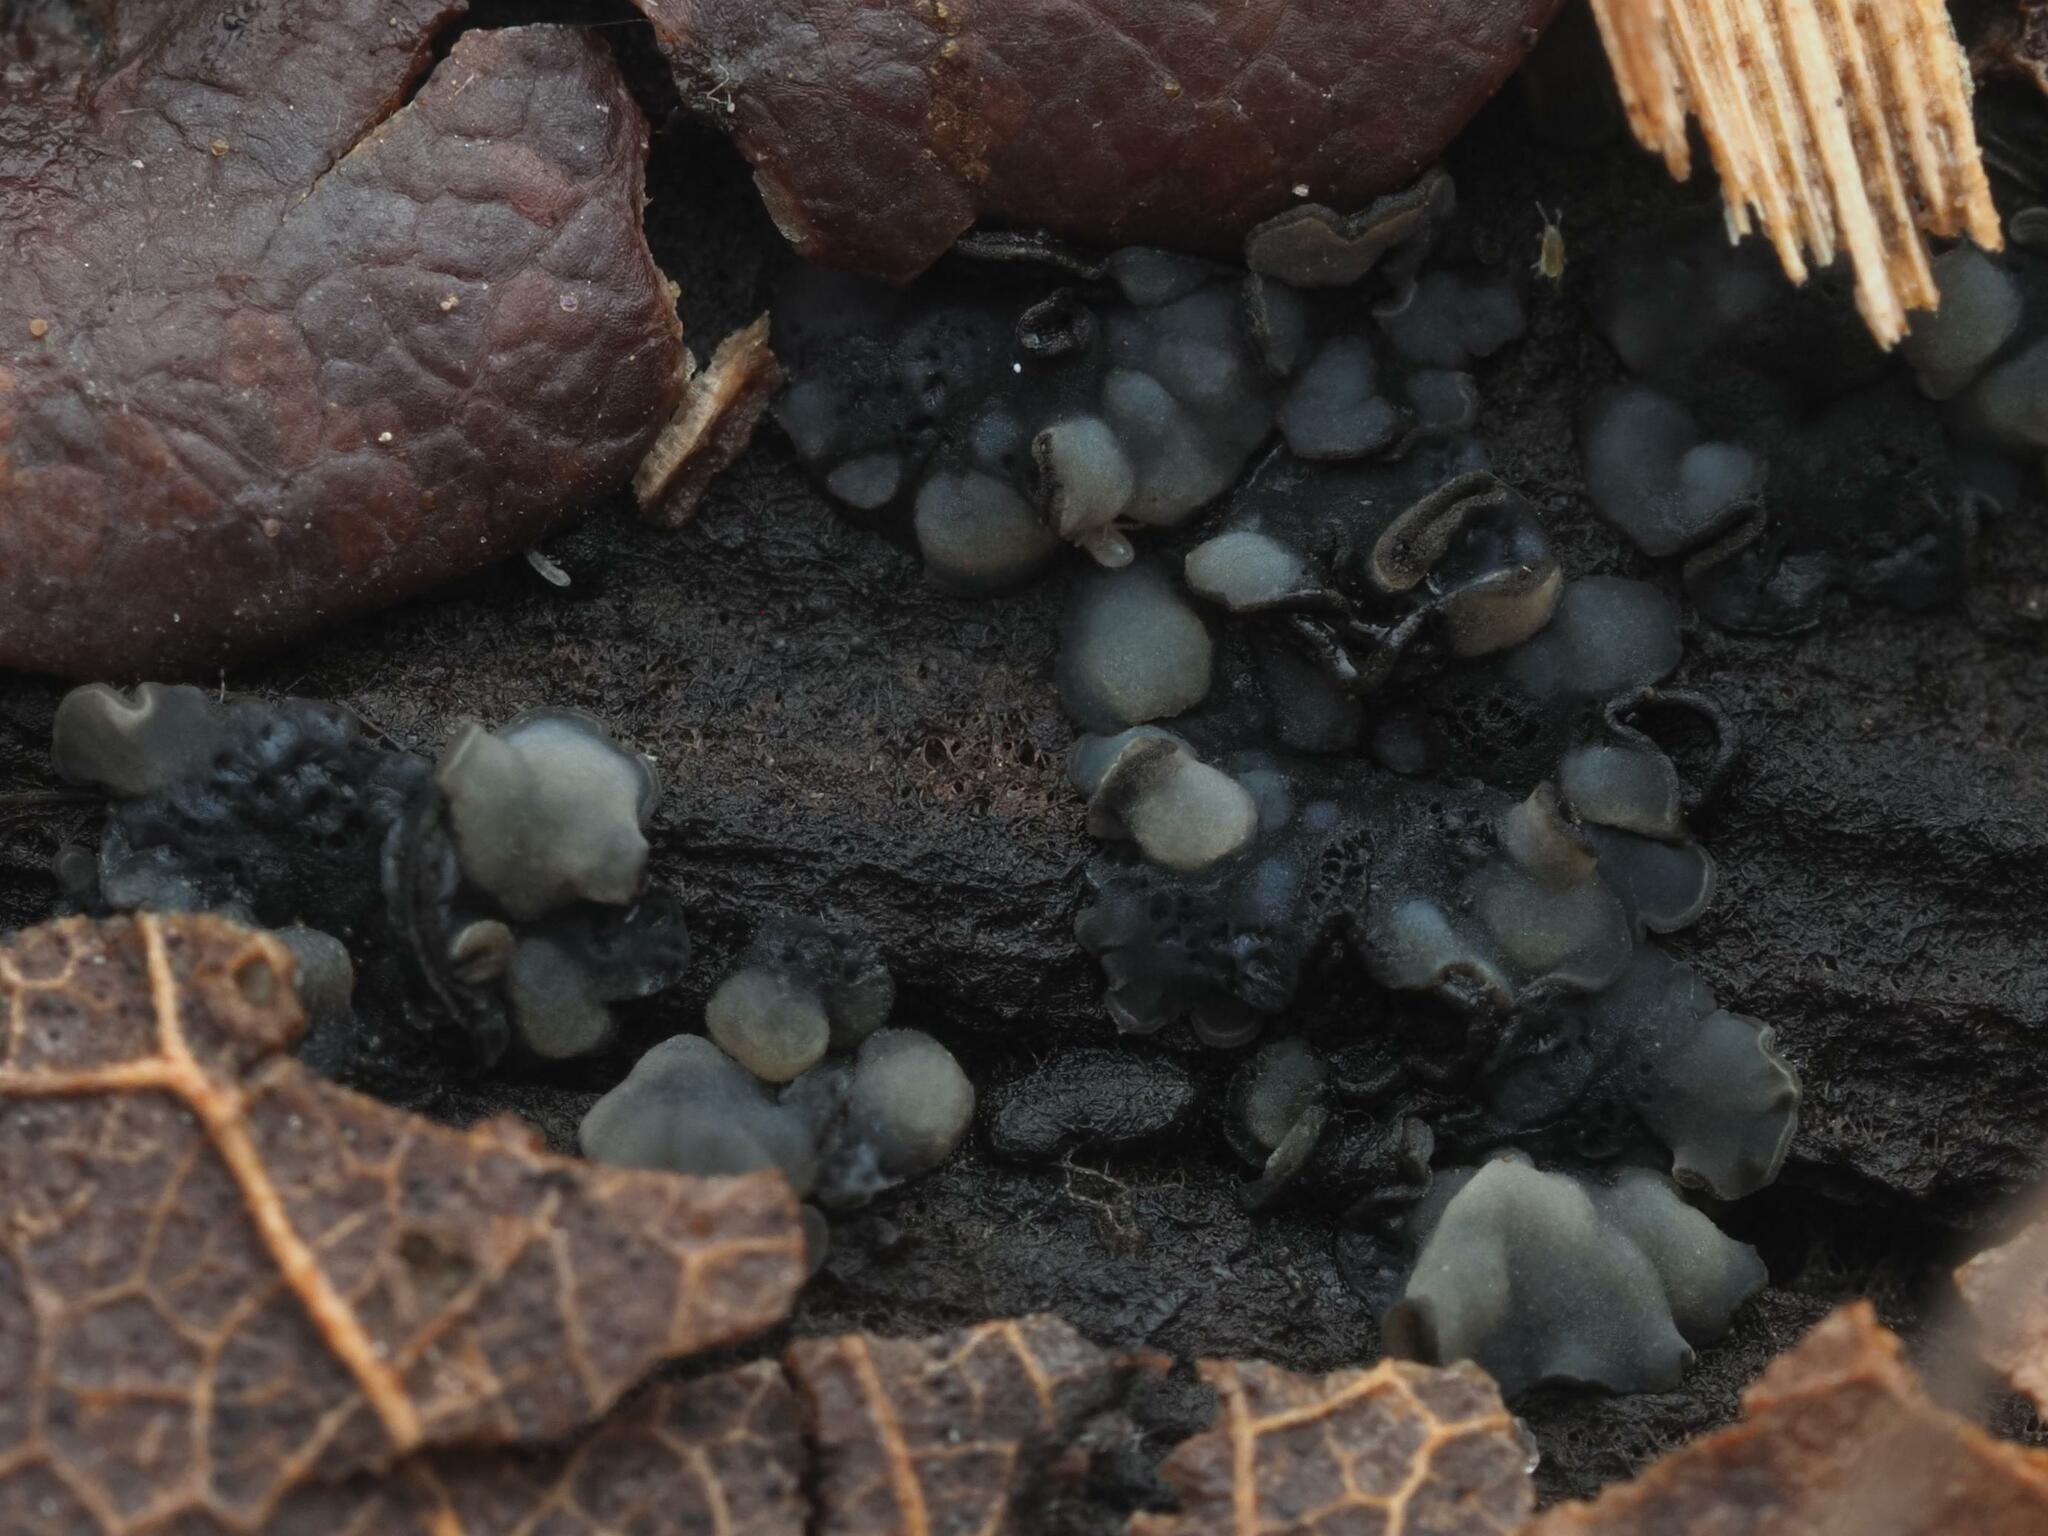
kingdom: Fungi
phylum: Ascomycota
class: Leotiomycetes
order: Helotiales
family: Mollisiaceae
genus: Tapesia
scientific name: Tapesia fusca
